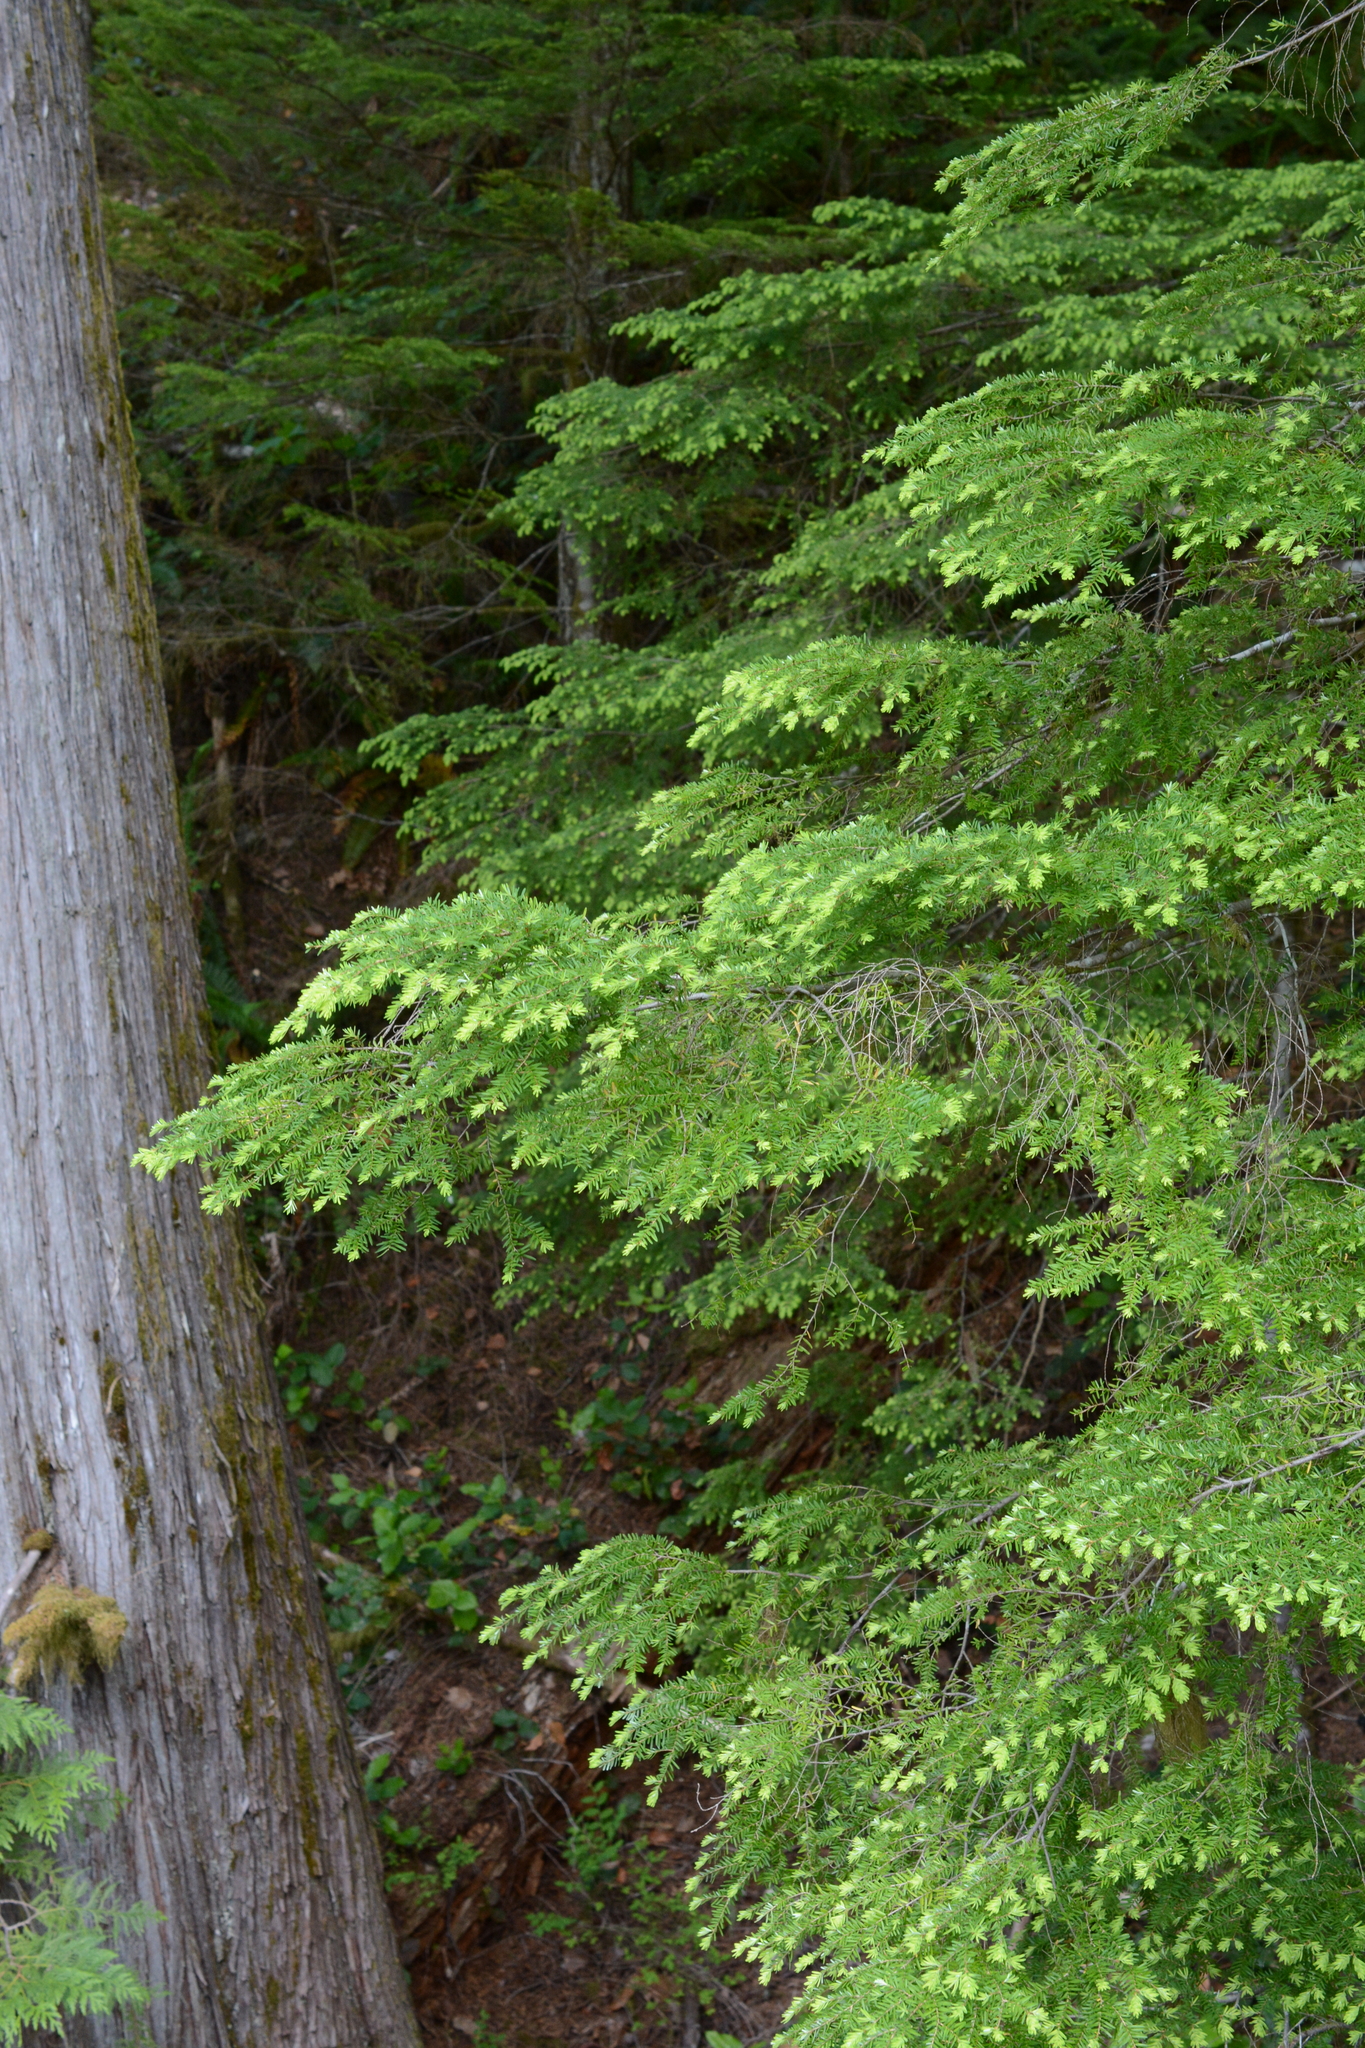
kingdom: Plantae
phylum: Tracheophyta
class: Pinopsida
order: Pinales
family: Pinaceae
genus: Tsuga
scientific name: Tsuga heterophylla
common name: Western hemlock
